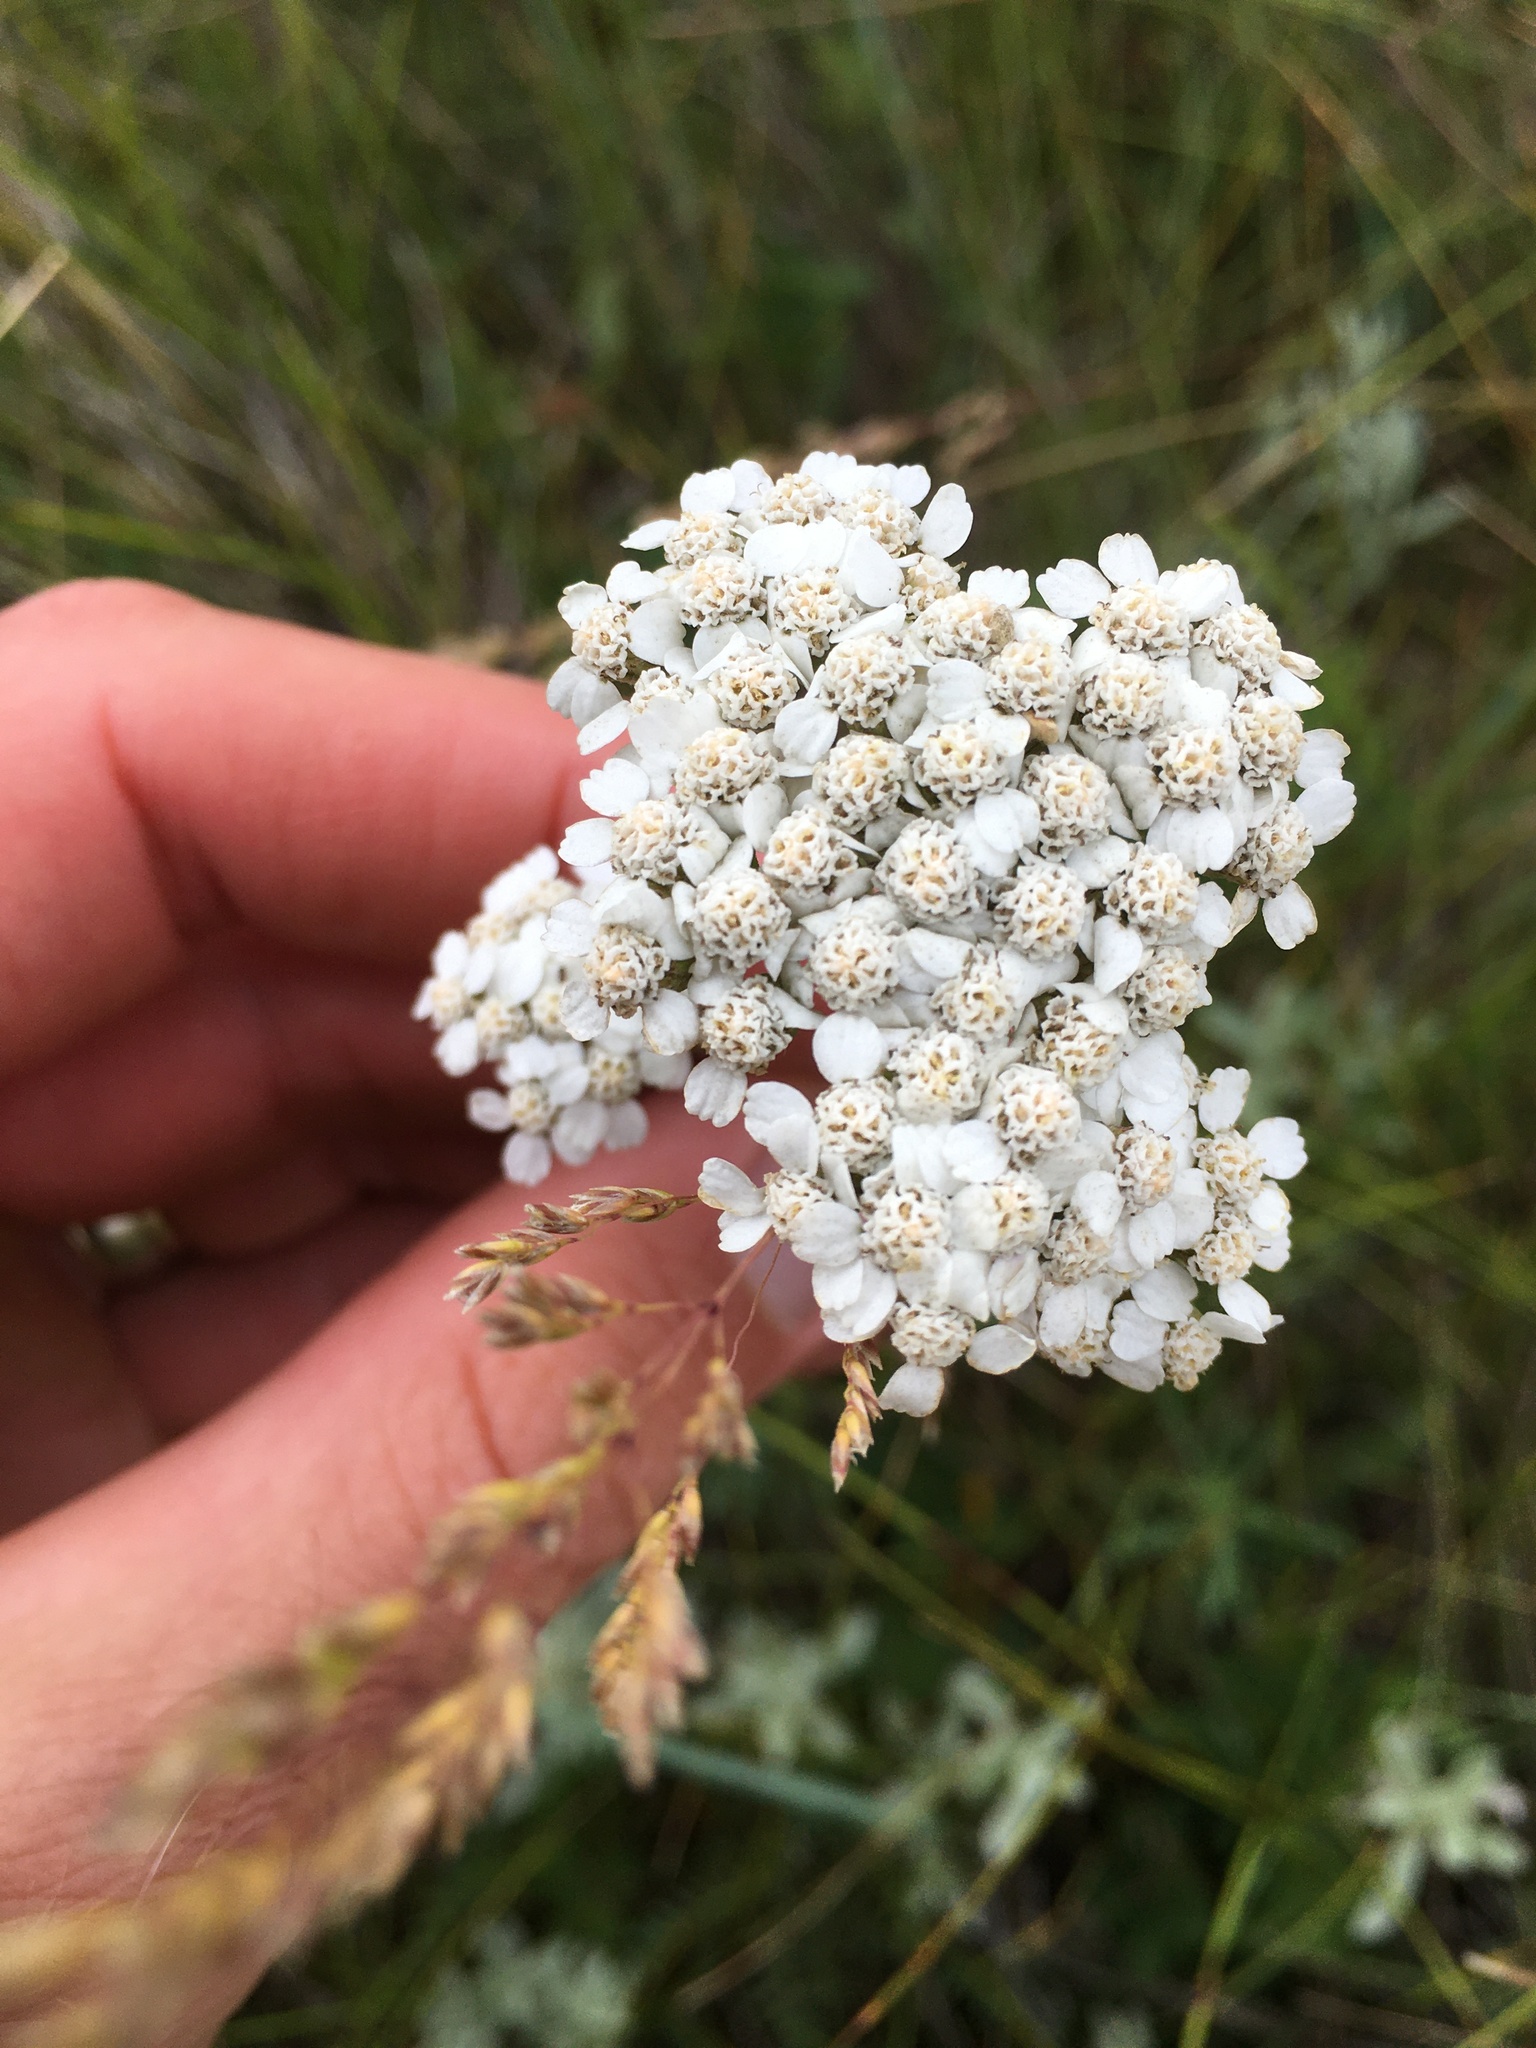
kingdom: Plantae
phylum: Tracheophyta
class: Magnoliopsida
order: Asterales
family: Asteraceae
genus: Achillea
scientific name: Achillea millefolium
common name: Yarrow
